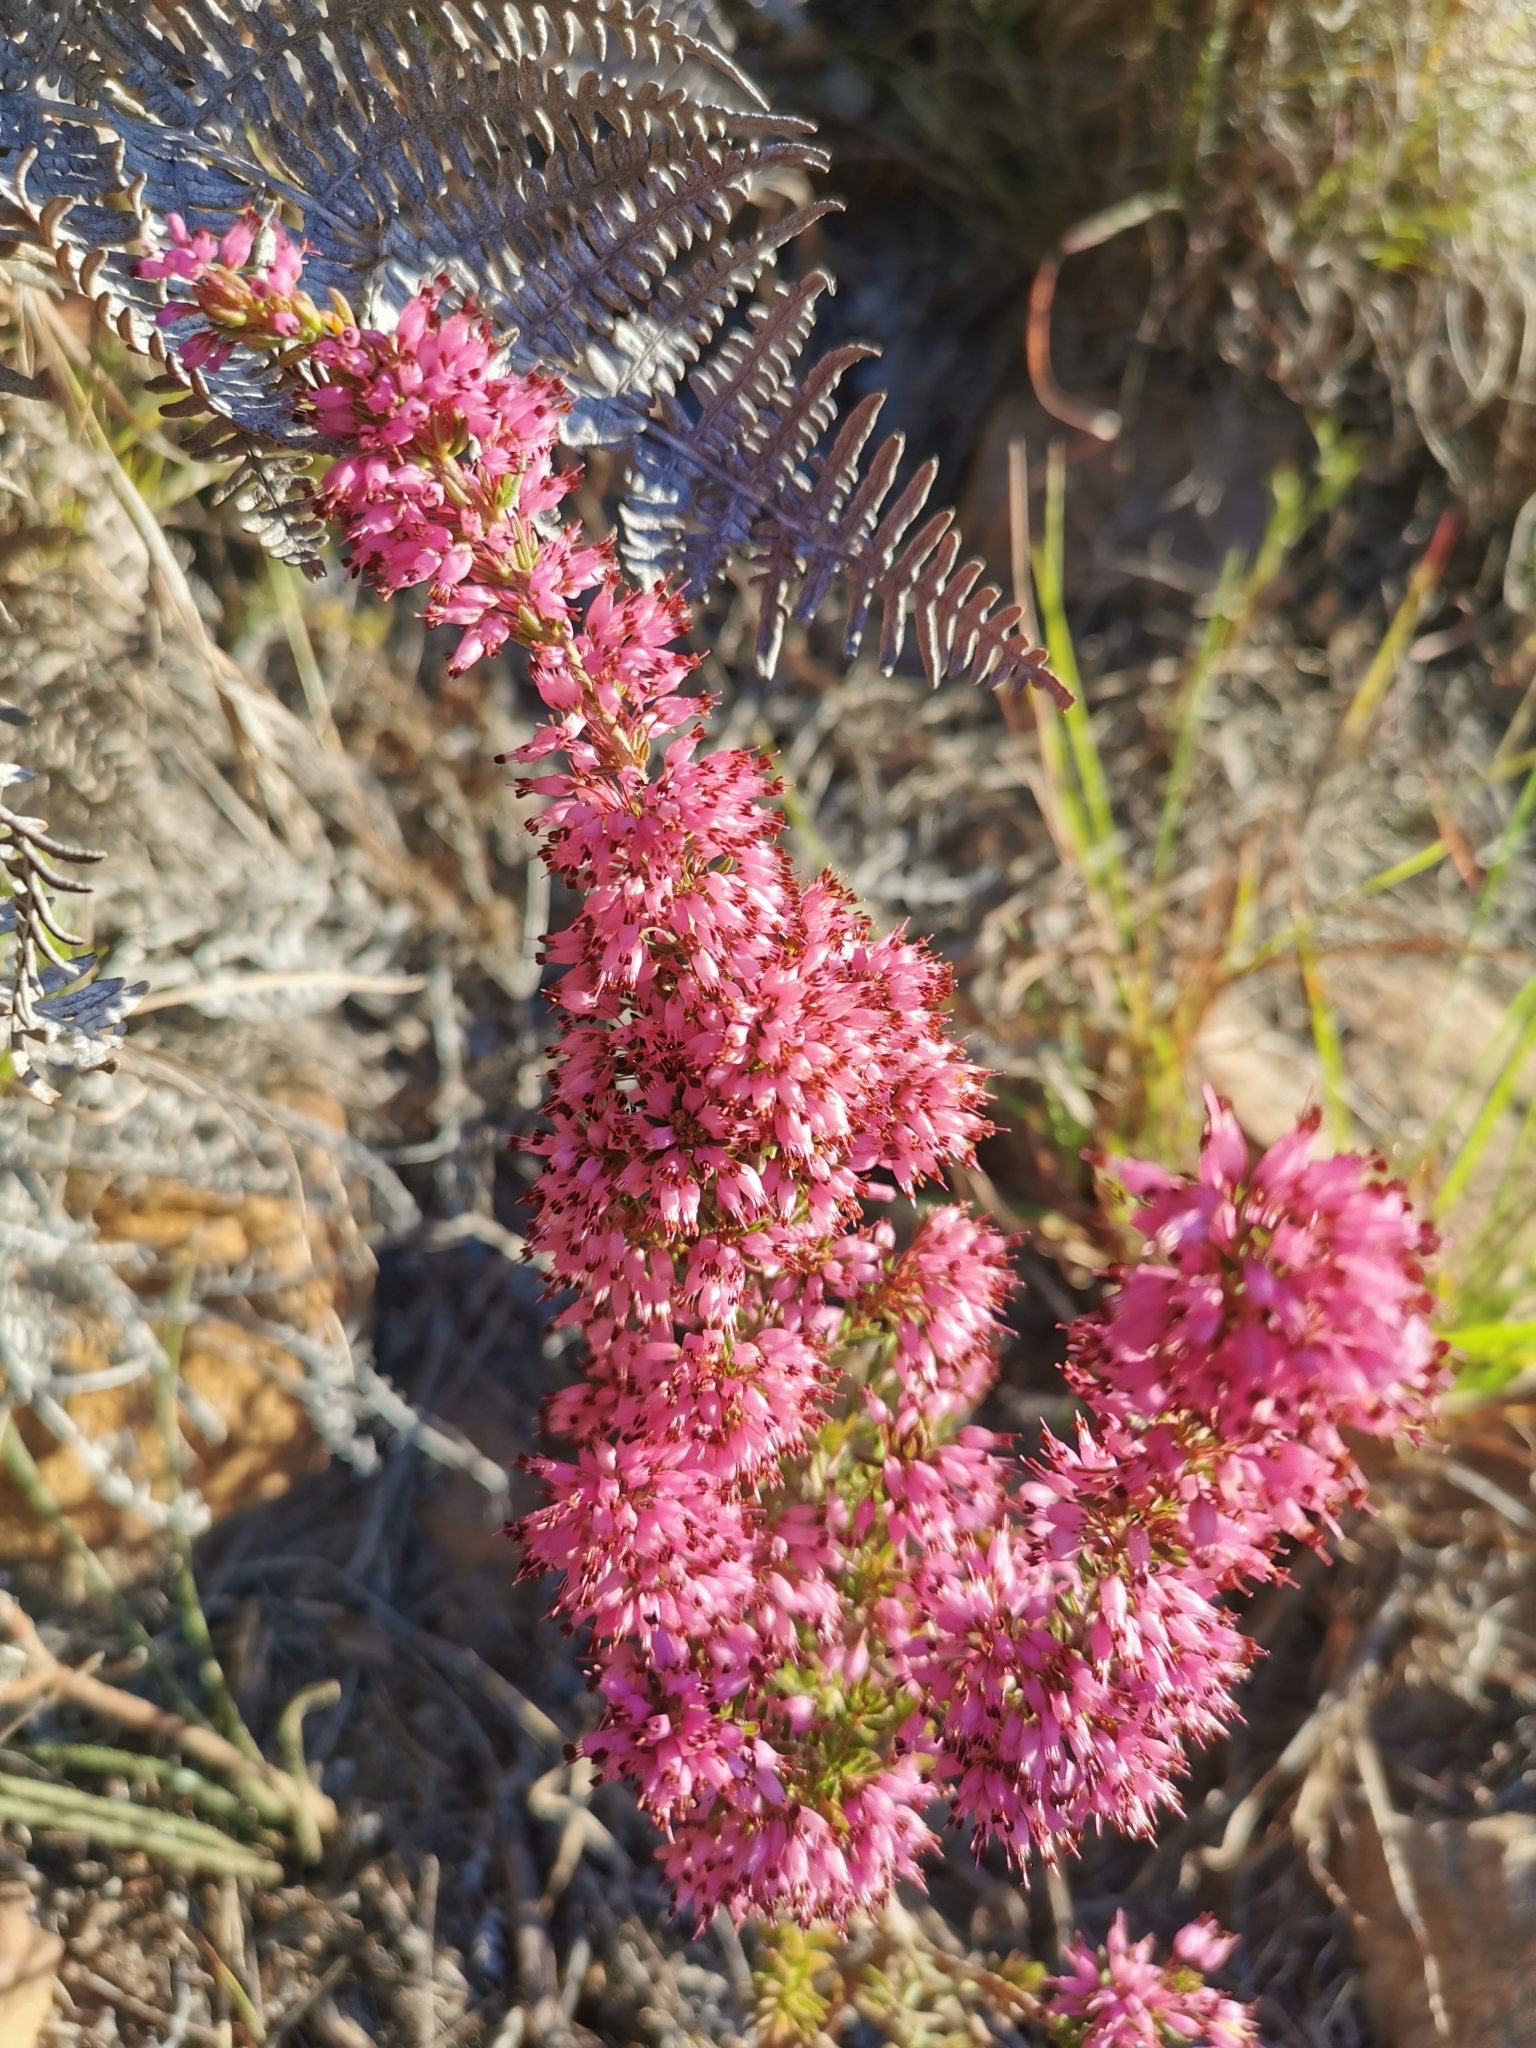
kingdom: Plantae
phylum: Tracheophyta
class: Magnoliopsida
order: Ericales
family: Ericaceae
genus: Erica
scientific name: Erica nudiflora
